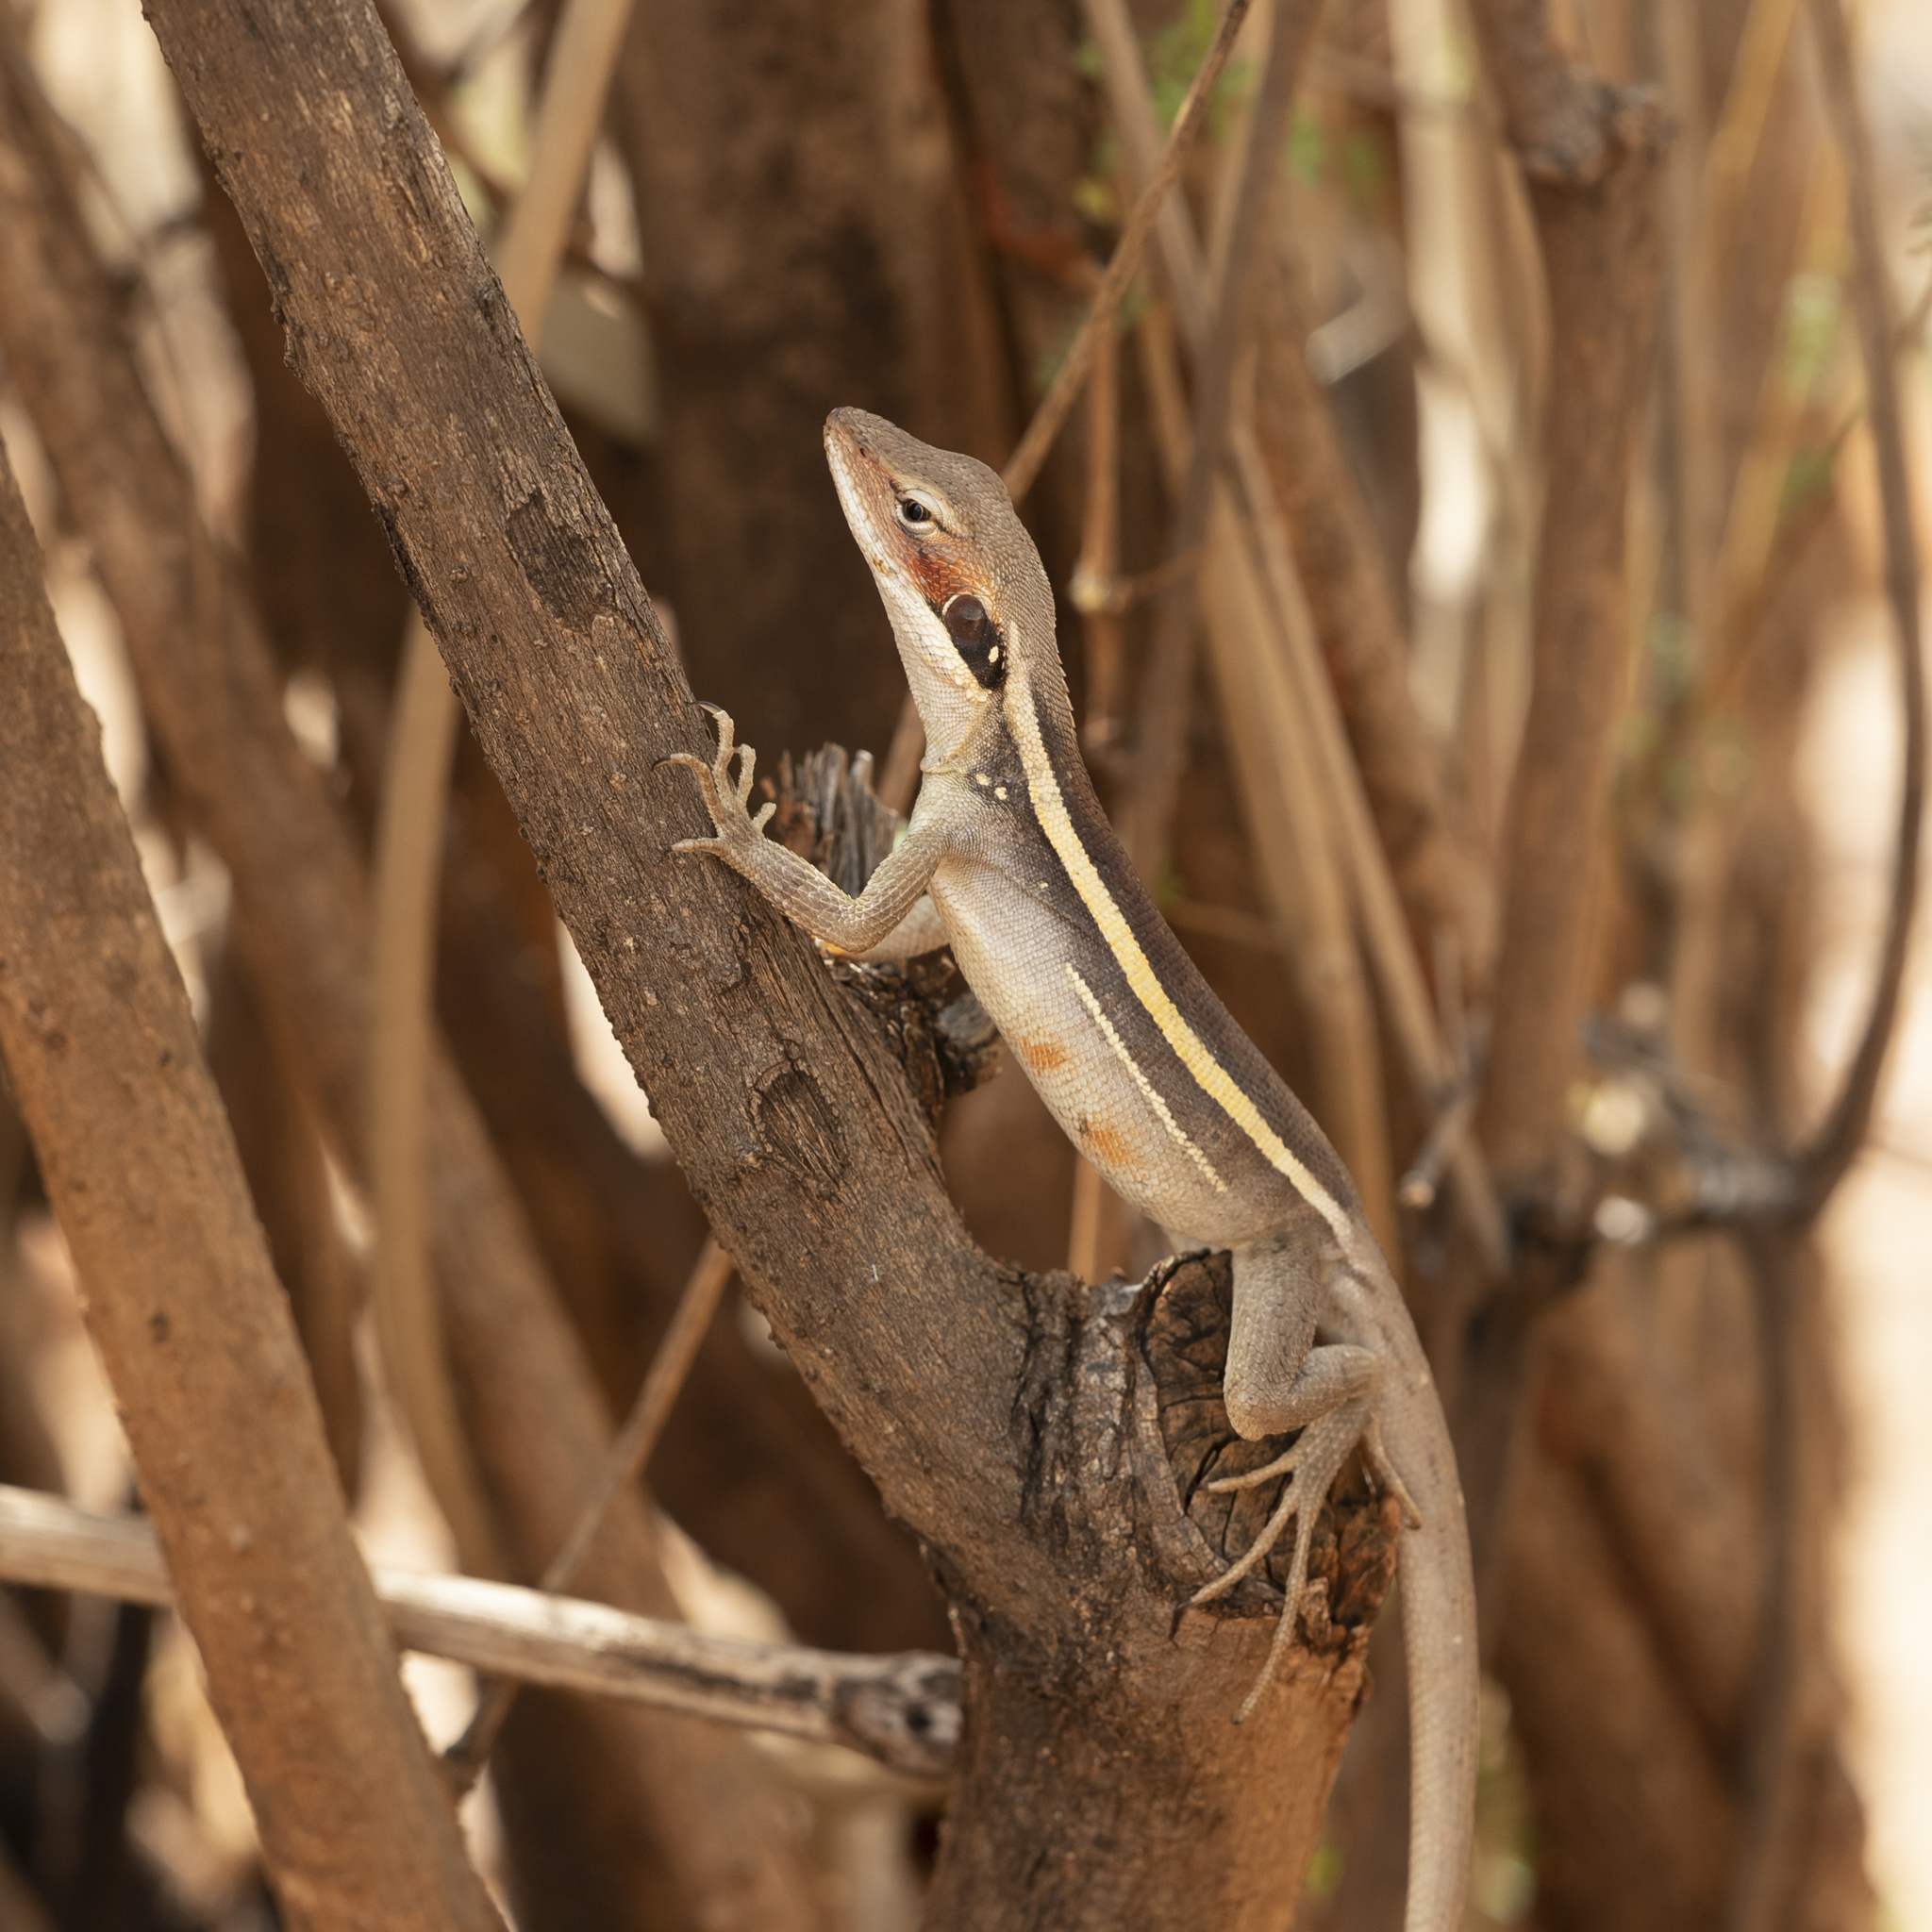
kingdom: Animalia
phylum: Chordata
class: Squamata
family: Agamidae
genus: Gowidon
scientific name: Gowidon longirostris
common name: Long-nosed water dragon
